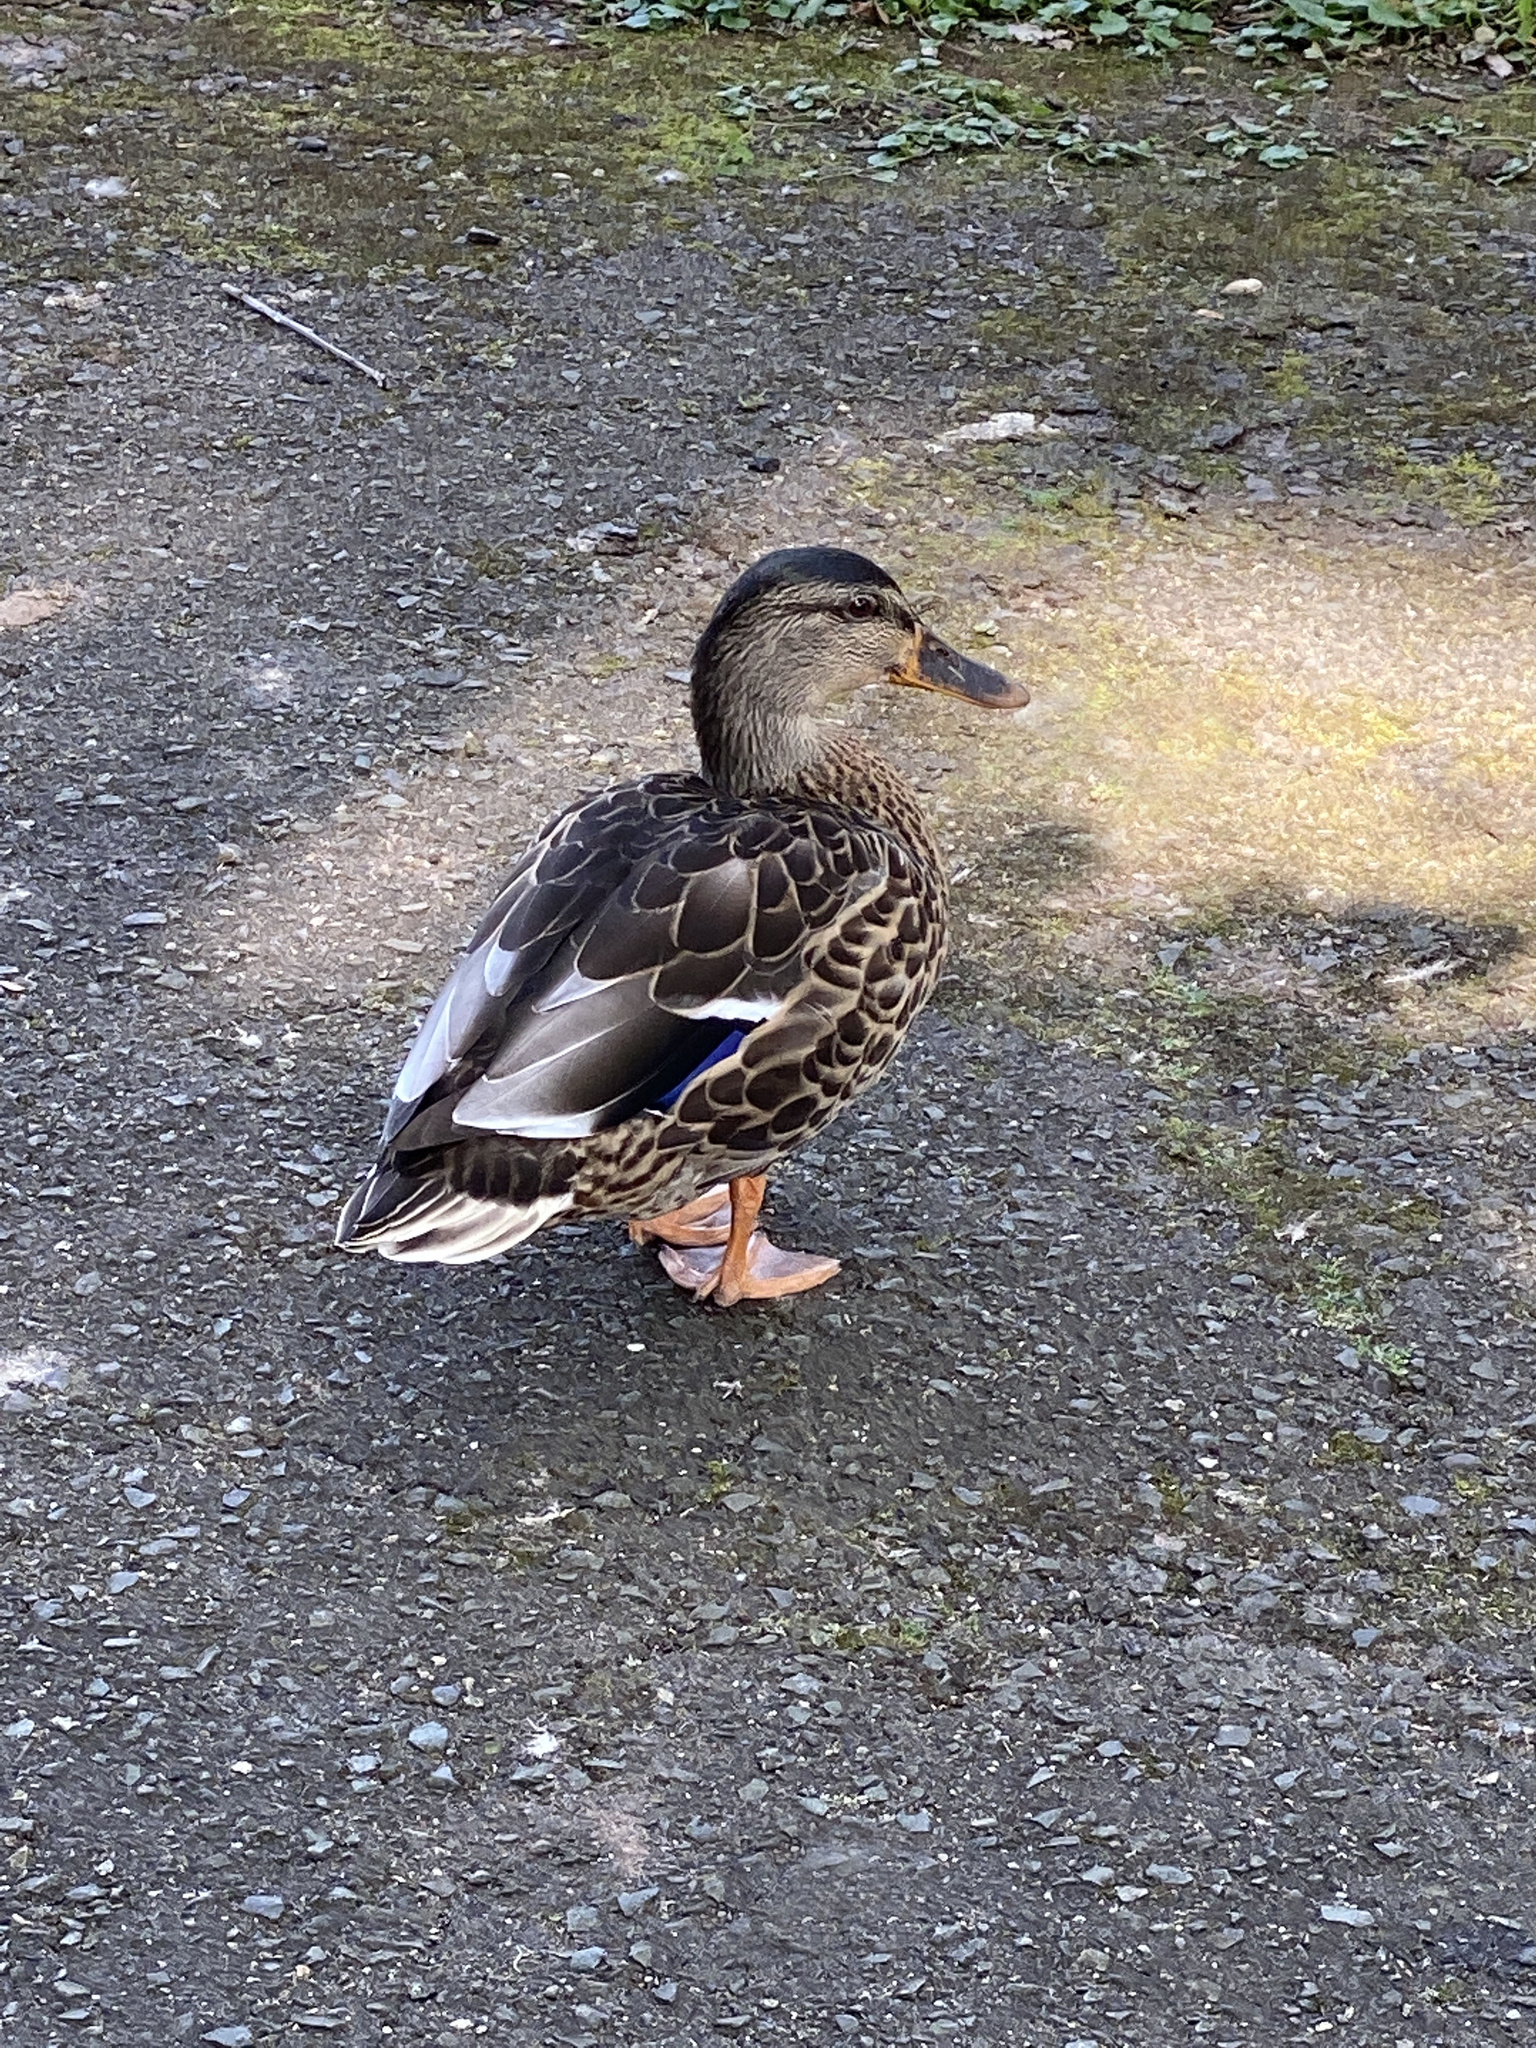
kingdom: Animalia
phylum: Chordata
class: Aves
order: Anseriformes
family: Anatidae
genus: Anas
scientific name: Anas platyrhynchos
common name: Mallard
